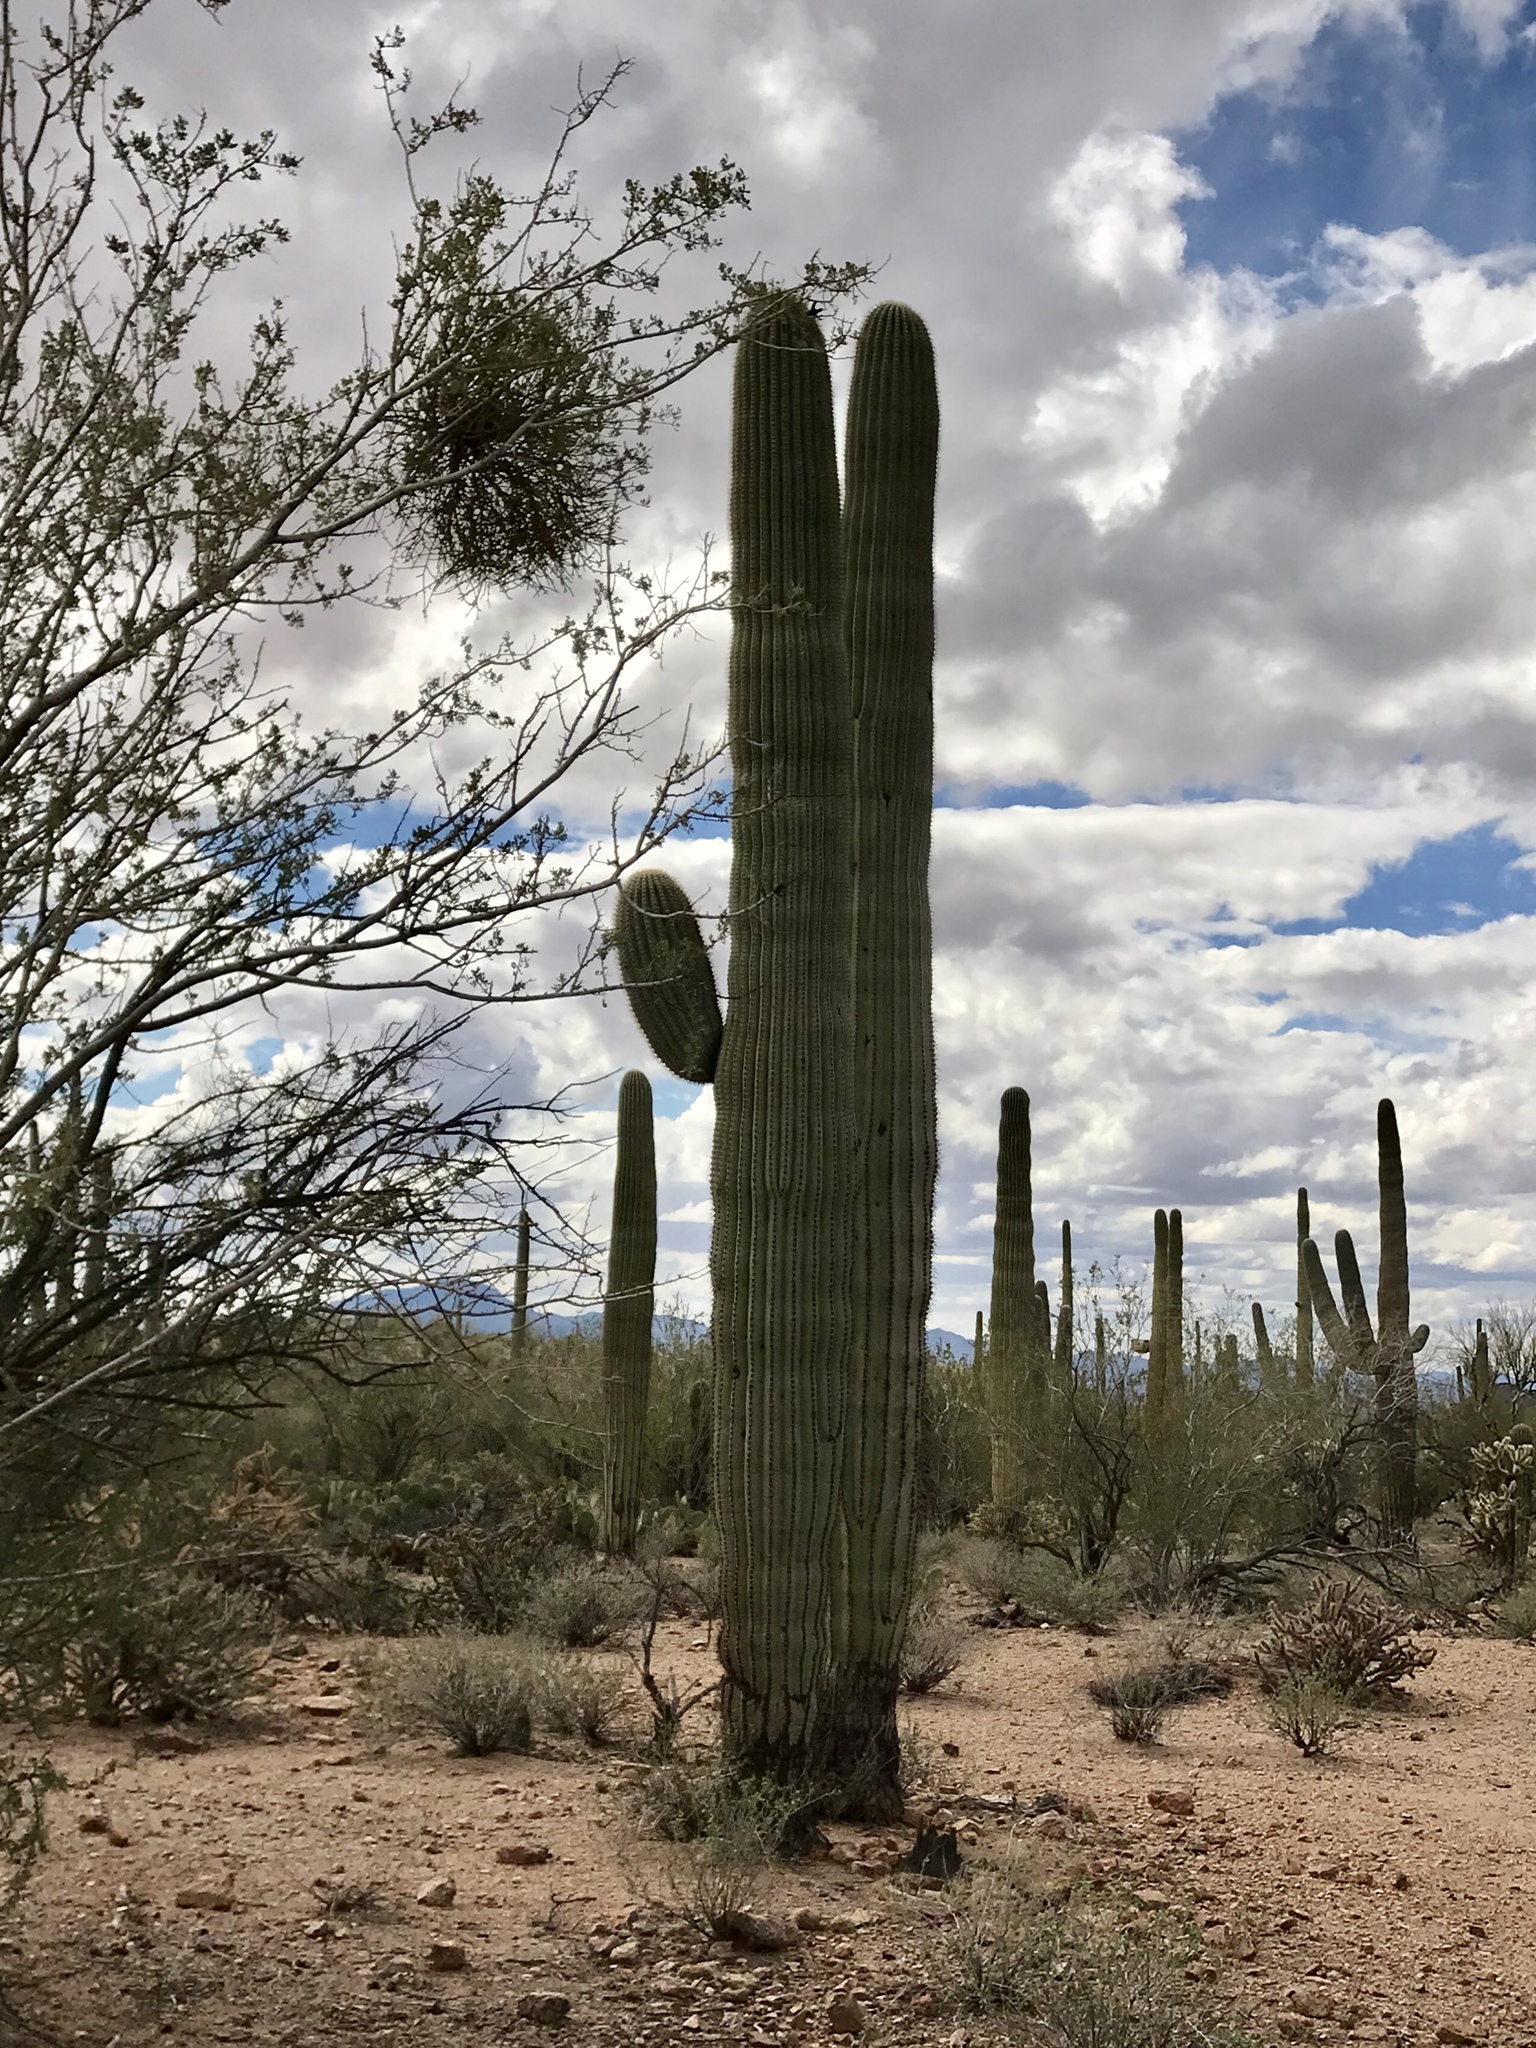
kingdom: Plantae
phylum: Tracheophyta
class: Magnoliopsida
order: Caryophyllales
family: Cactaceae
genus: Carnegiea
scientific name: Carnegiea gigantea
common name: Saguaro
